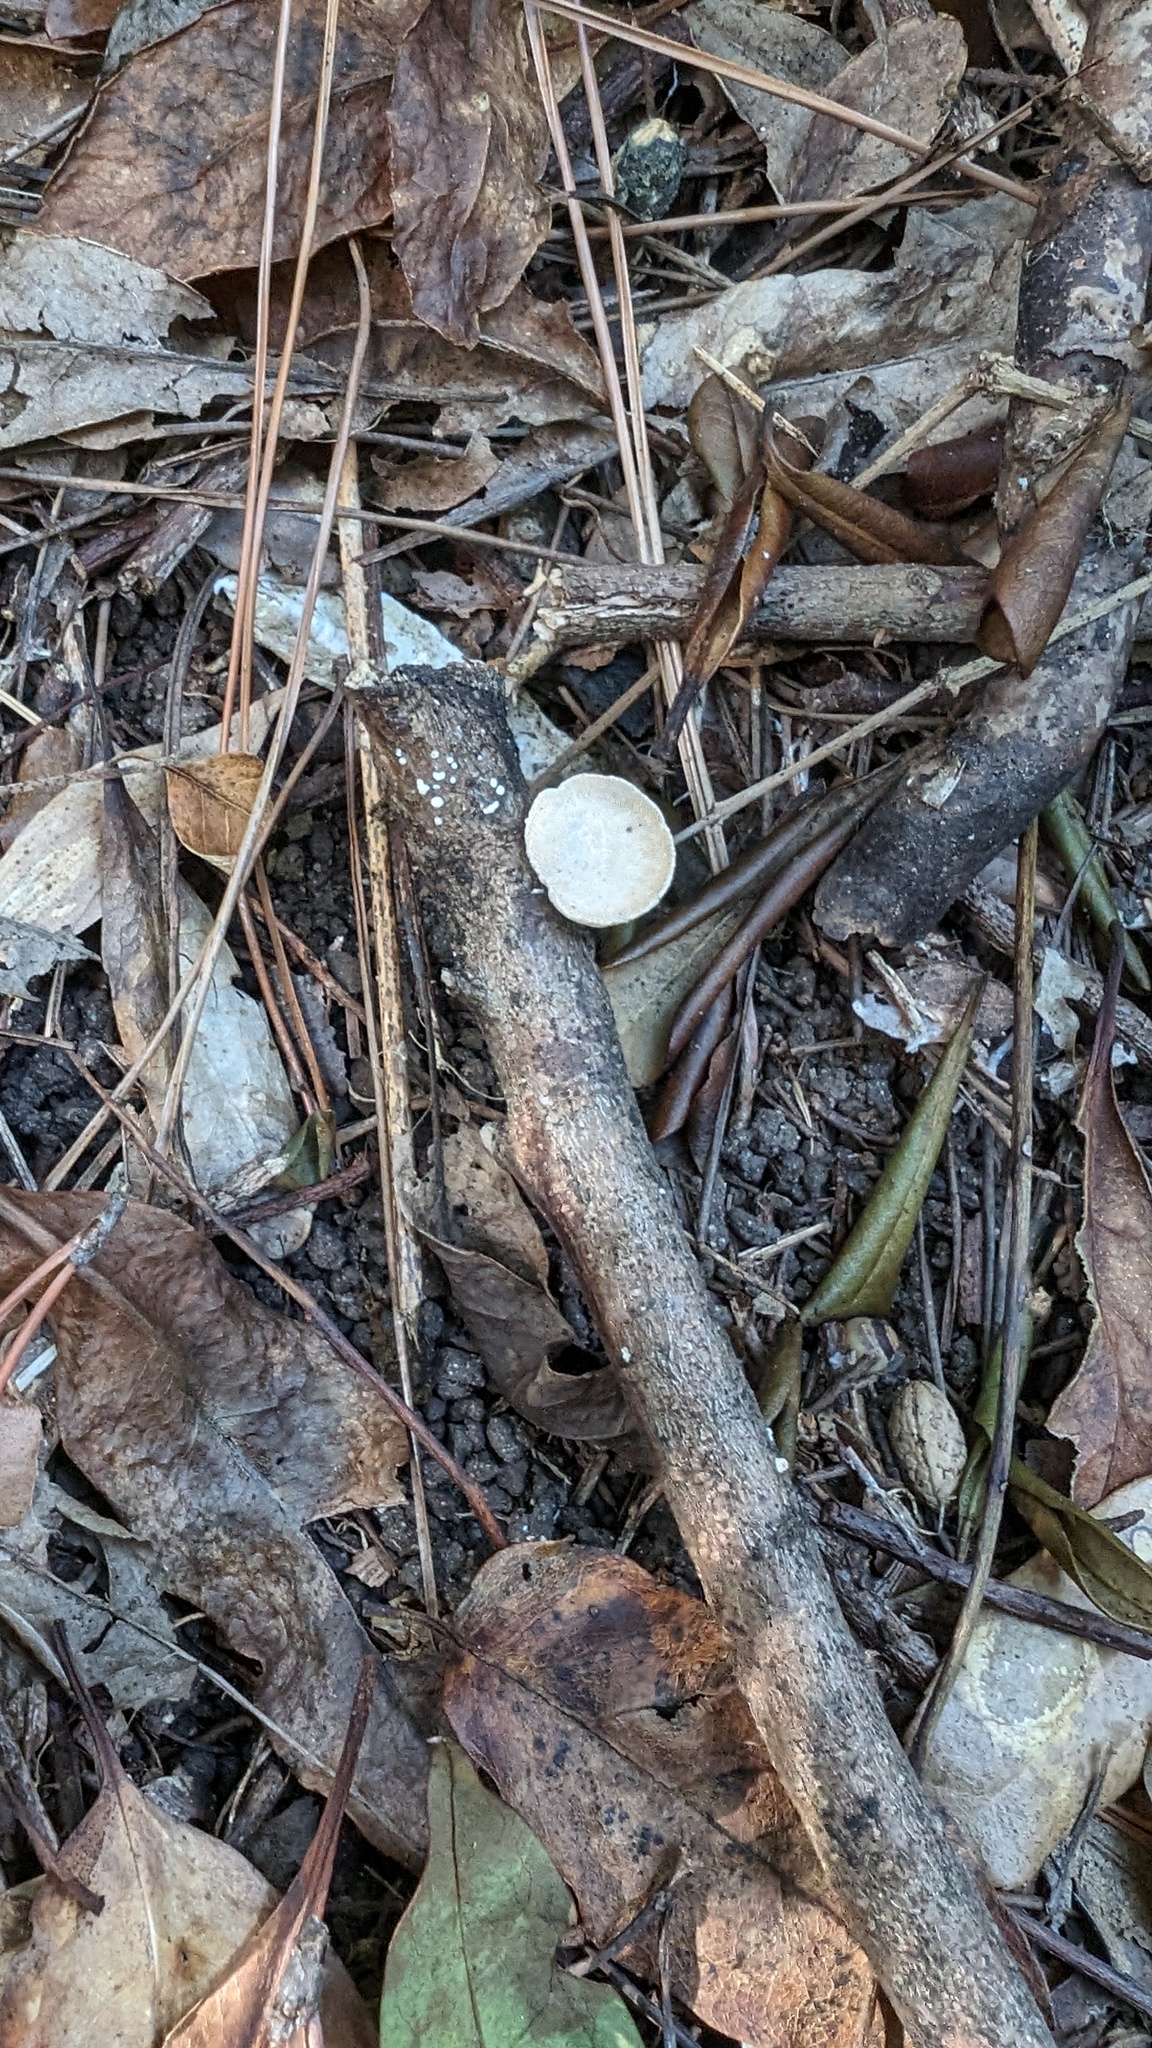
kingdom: Fungi
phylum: Basidiomycota
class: Agaricomycetes
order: Polyporales
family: Polyporaceae
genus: Truncospora
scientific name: Truncospora ochroleuca
